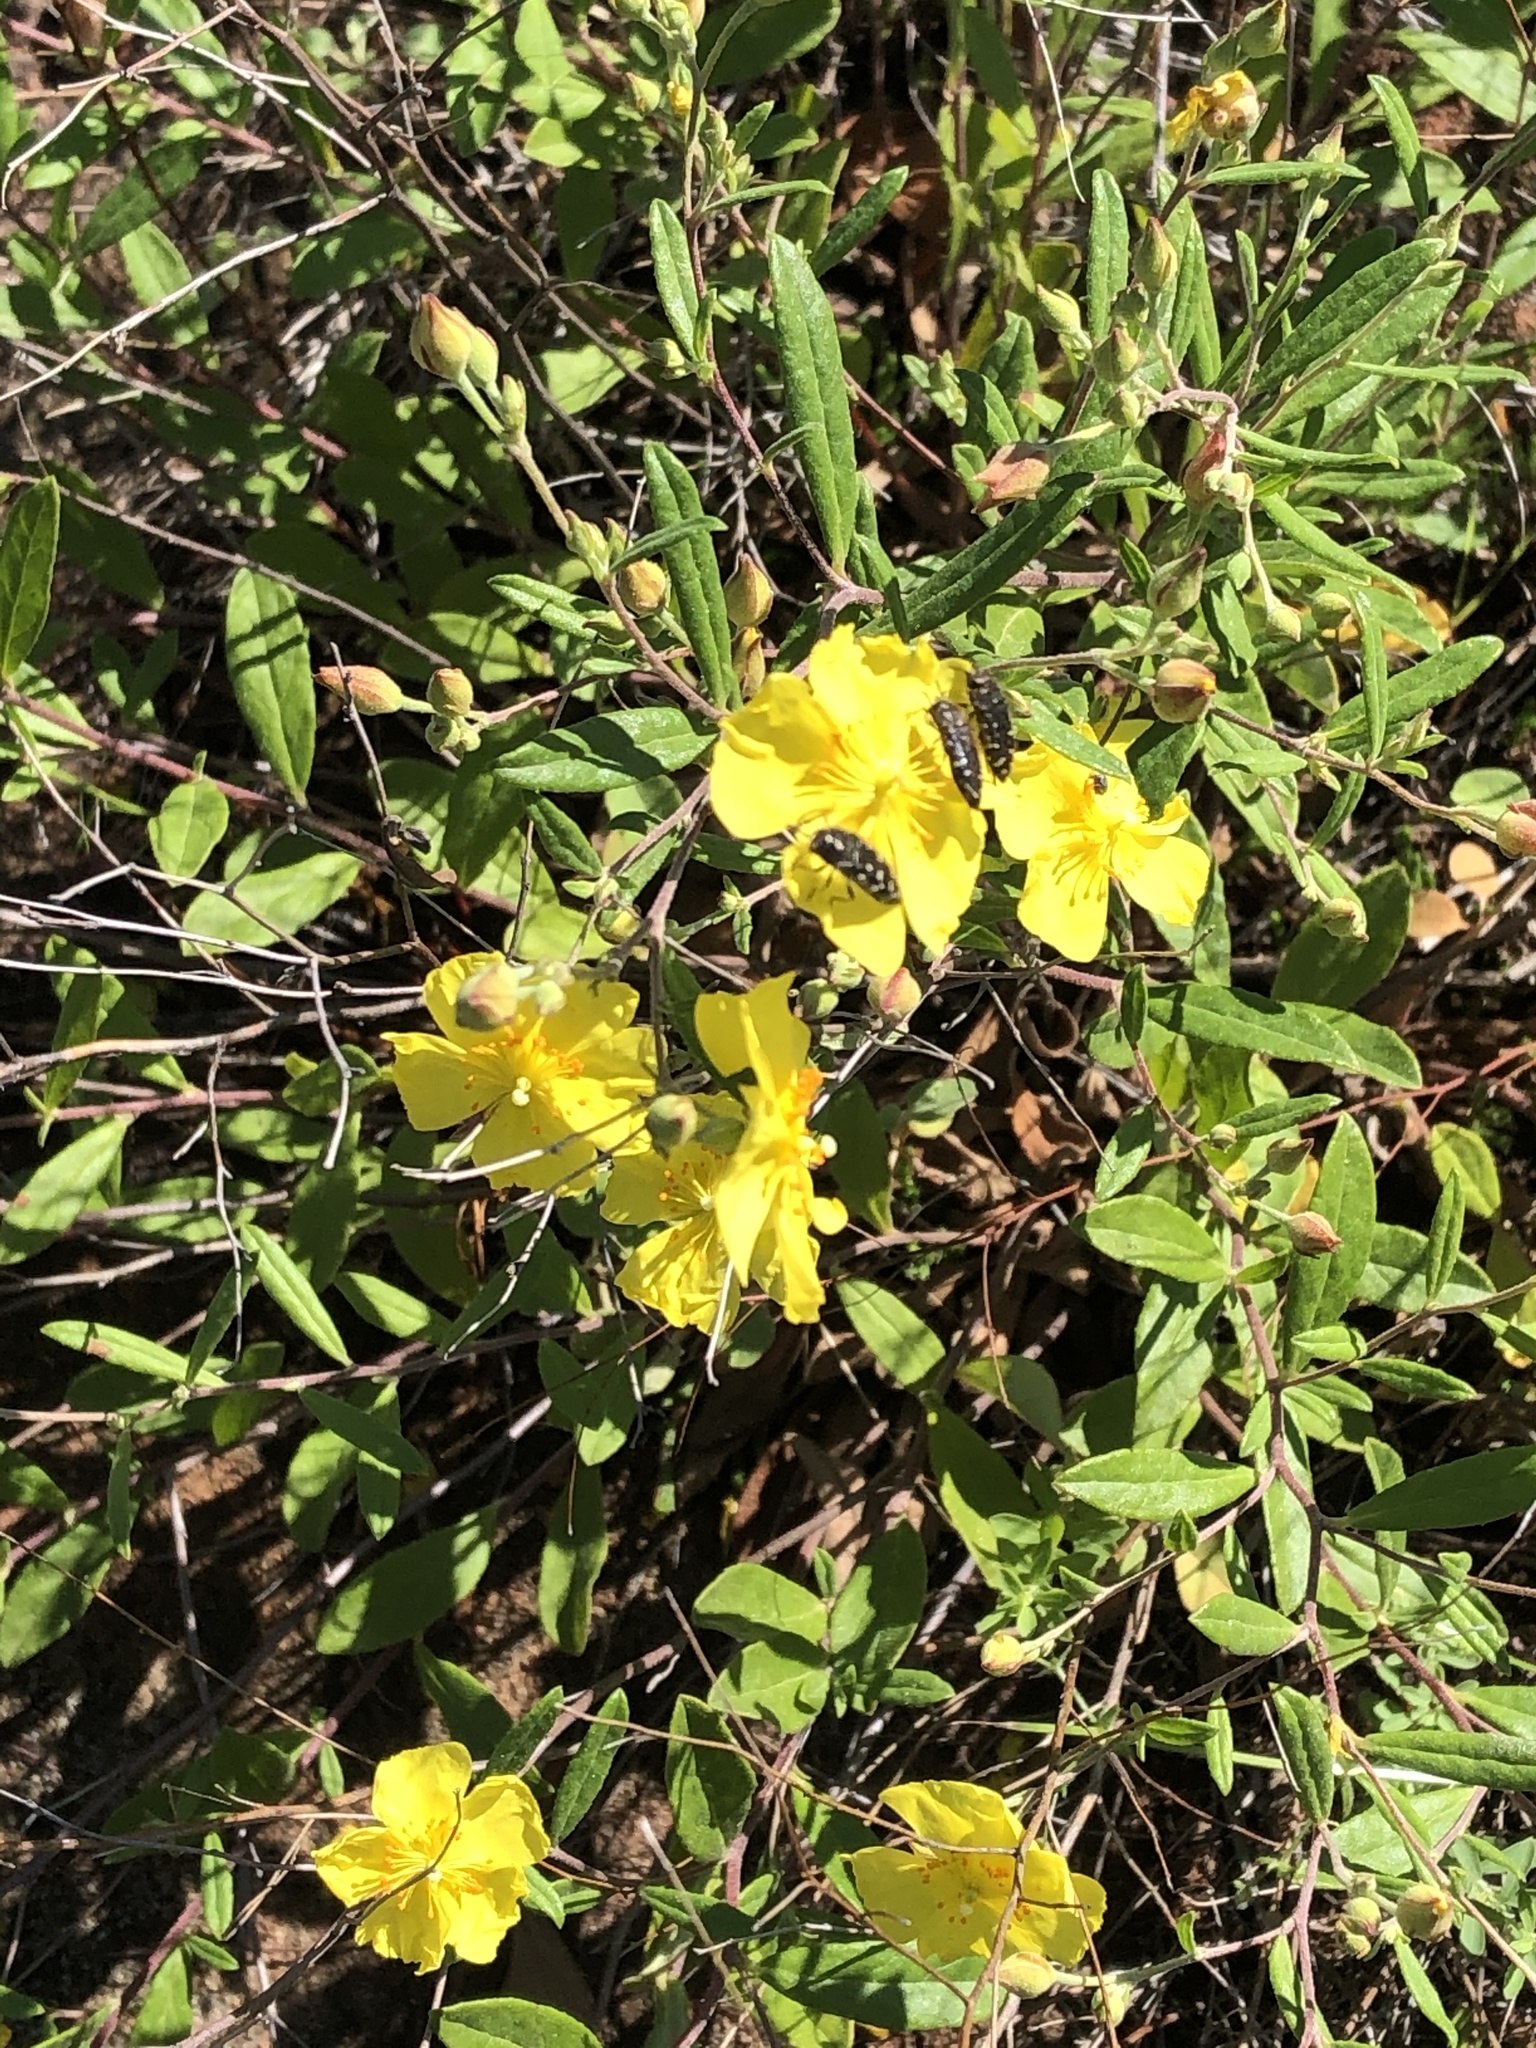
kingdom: Plantae
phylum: Tracheophyta
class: Magnoliopsida
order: Malvales
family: Cistaceae
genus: Crocanthemum
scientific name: Crocanthemum georgianum
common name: Georgia frostweed
